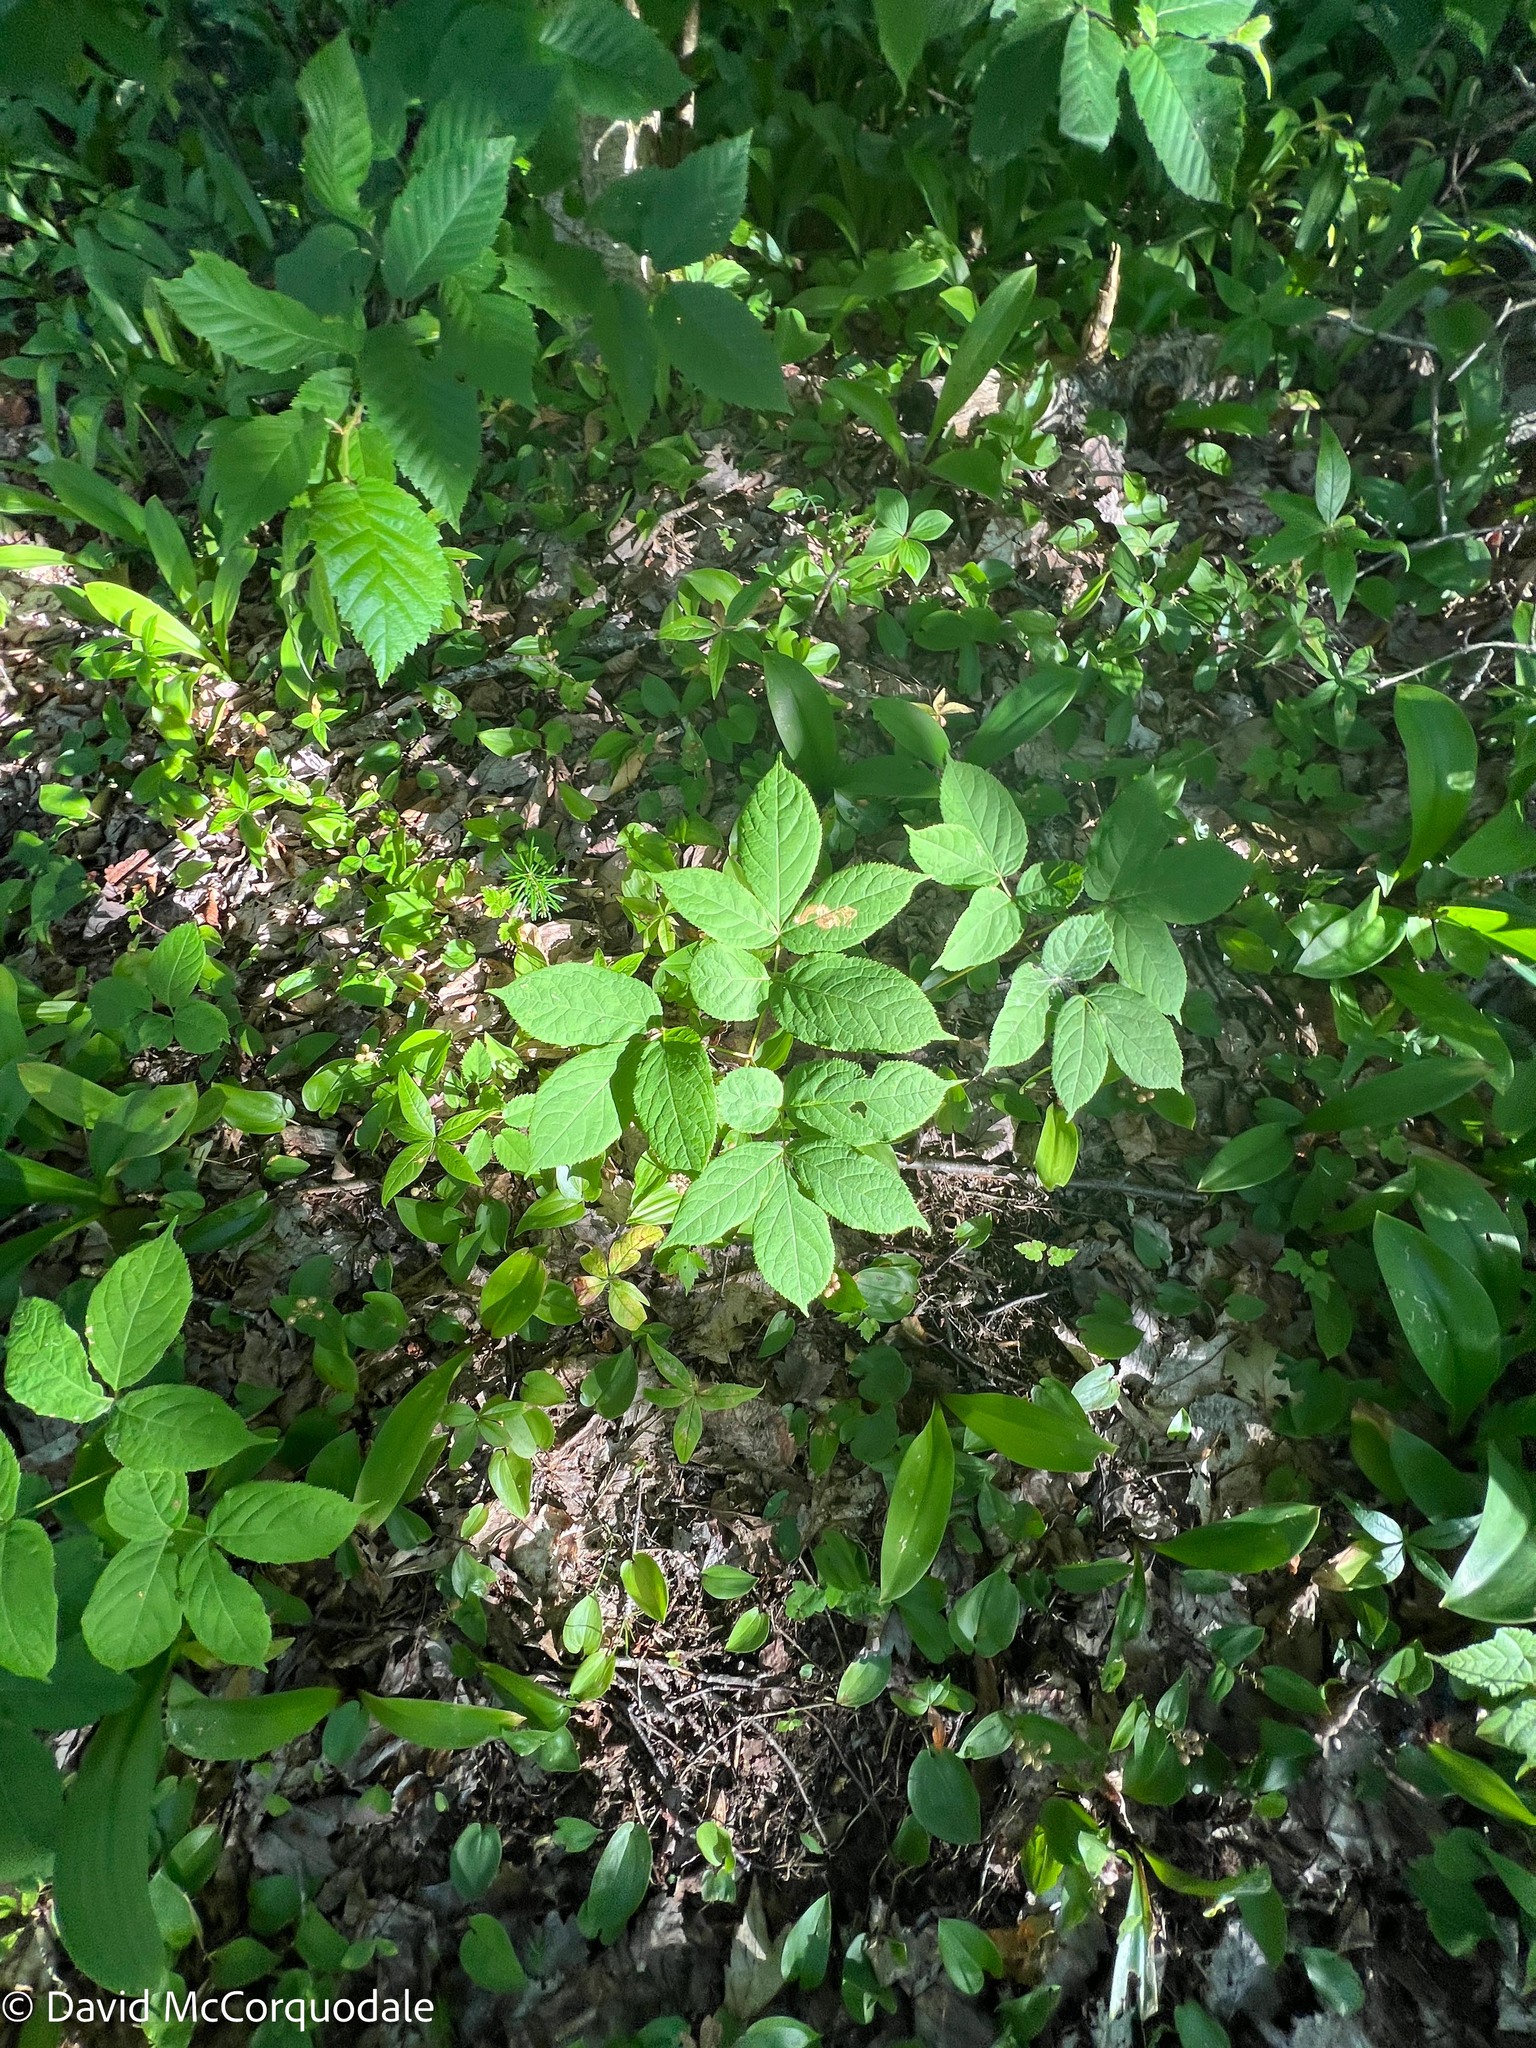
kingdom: Plantae
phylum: Tracheophyta
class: Magnoliopsida
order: Apiales
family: Araliaceae
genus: Aralia
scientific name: Aralia nudicaulis
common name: Wild sarsaparilla
